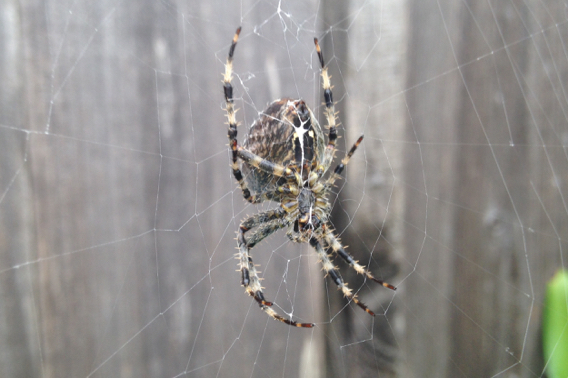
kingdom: Animalia
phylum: Arthropoda
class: Arachnida
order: Araneae
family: Araneidae
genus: Araneus
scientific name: Araneus diadematus
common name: Cross orbweaver
